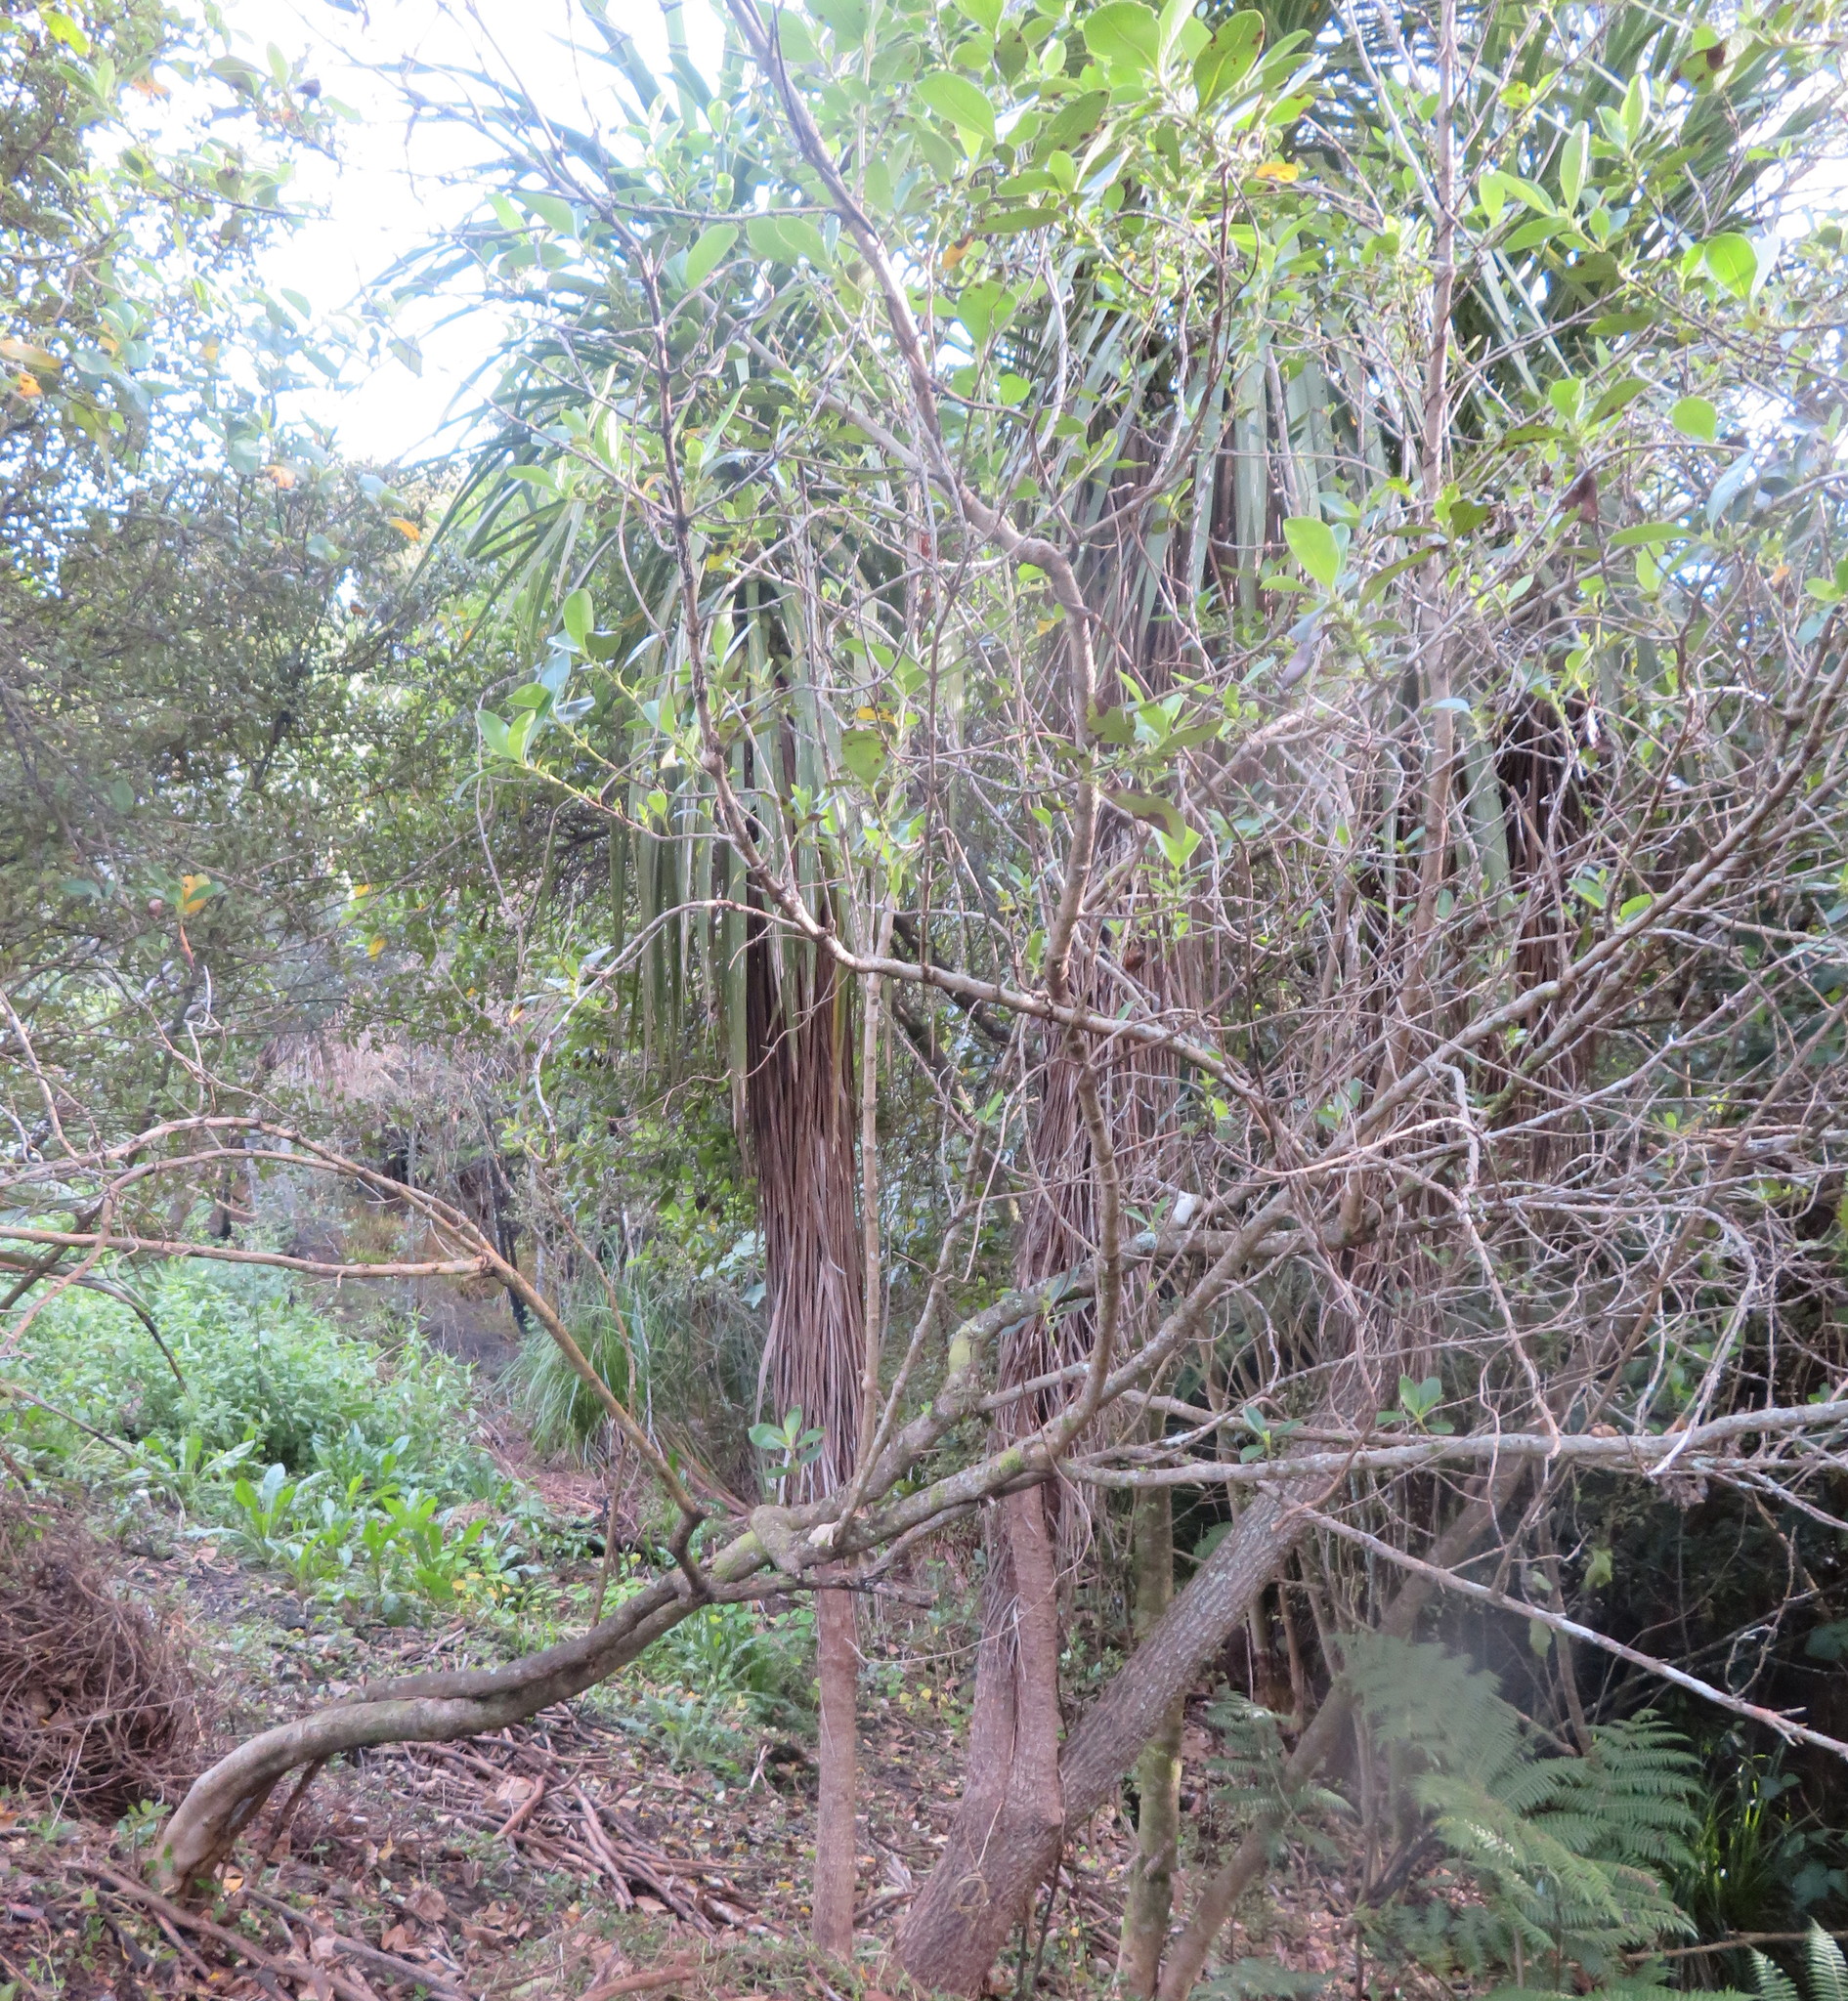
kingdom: Plantae
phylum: Tracheophyta
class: Magnoliopsida
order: Gentianales
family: Rubiaceae
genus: Coprosma
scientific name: Coprosma robusta
